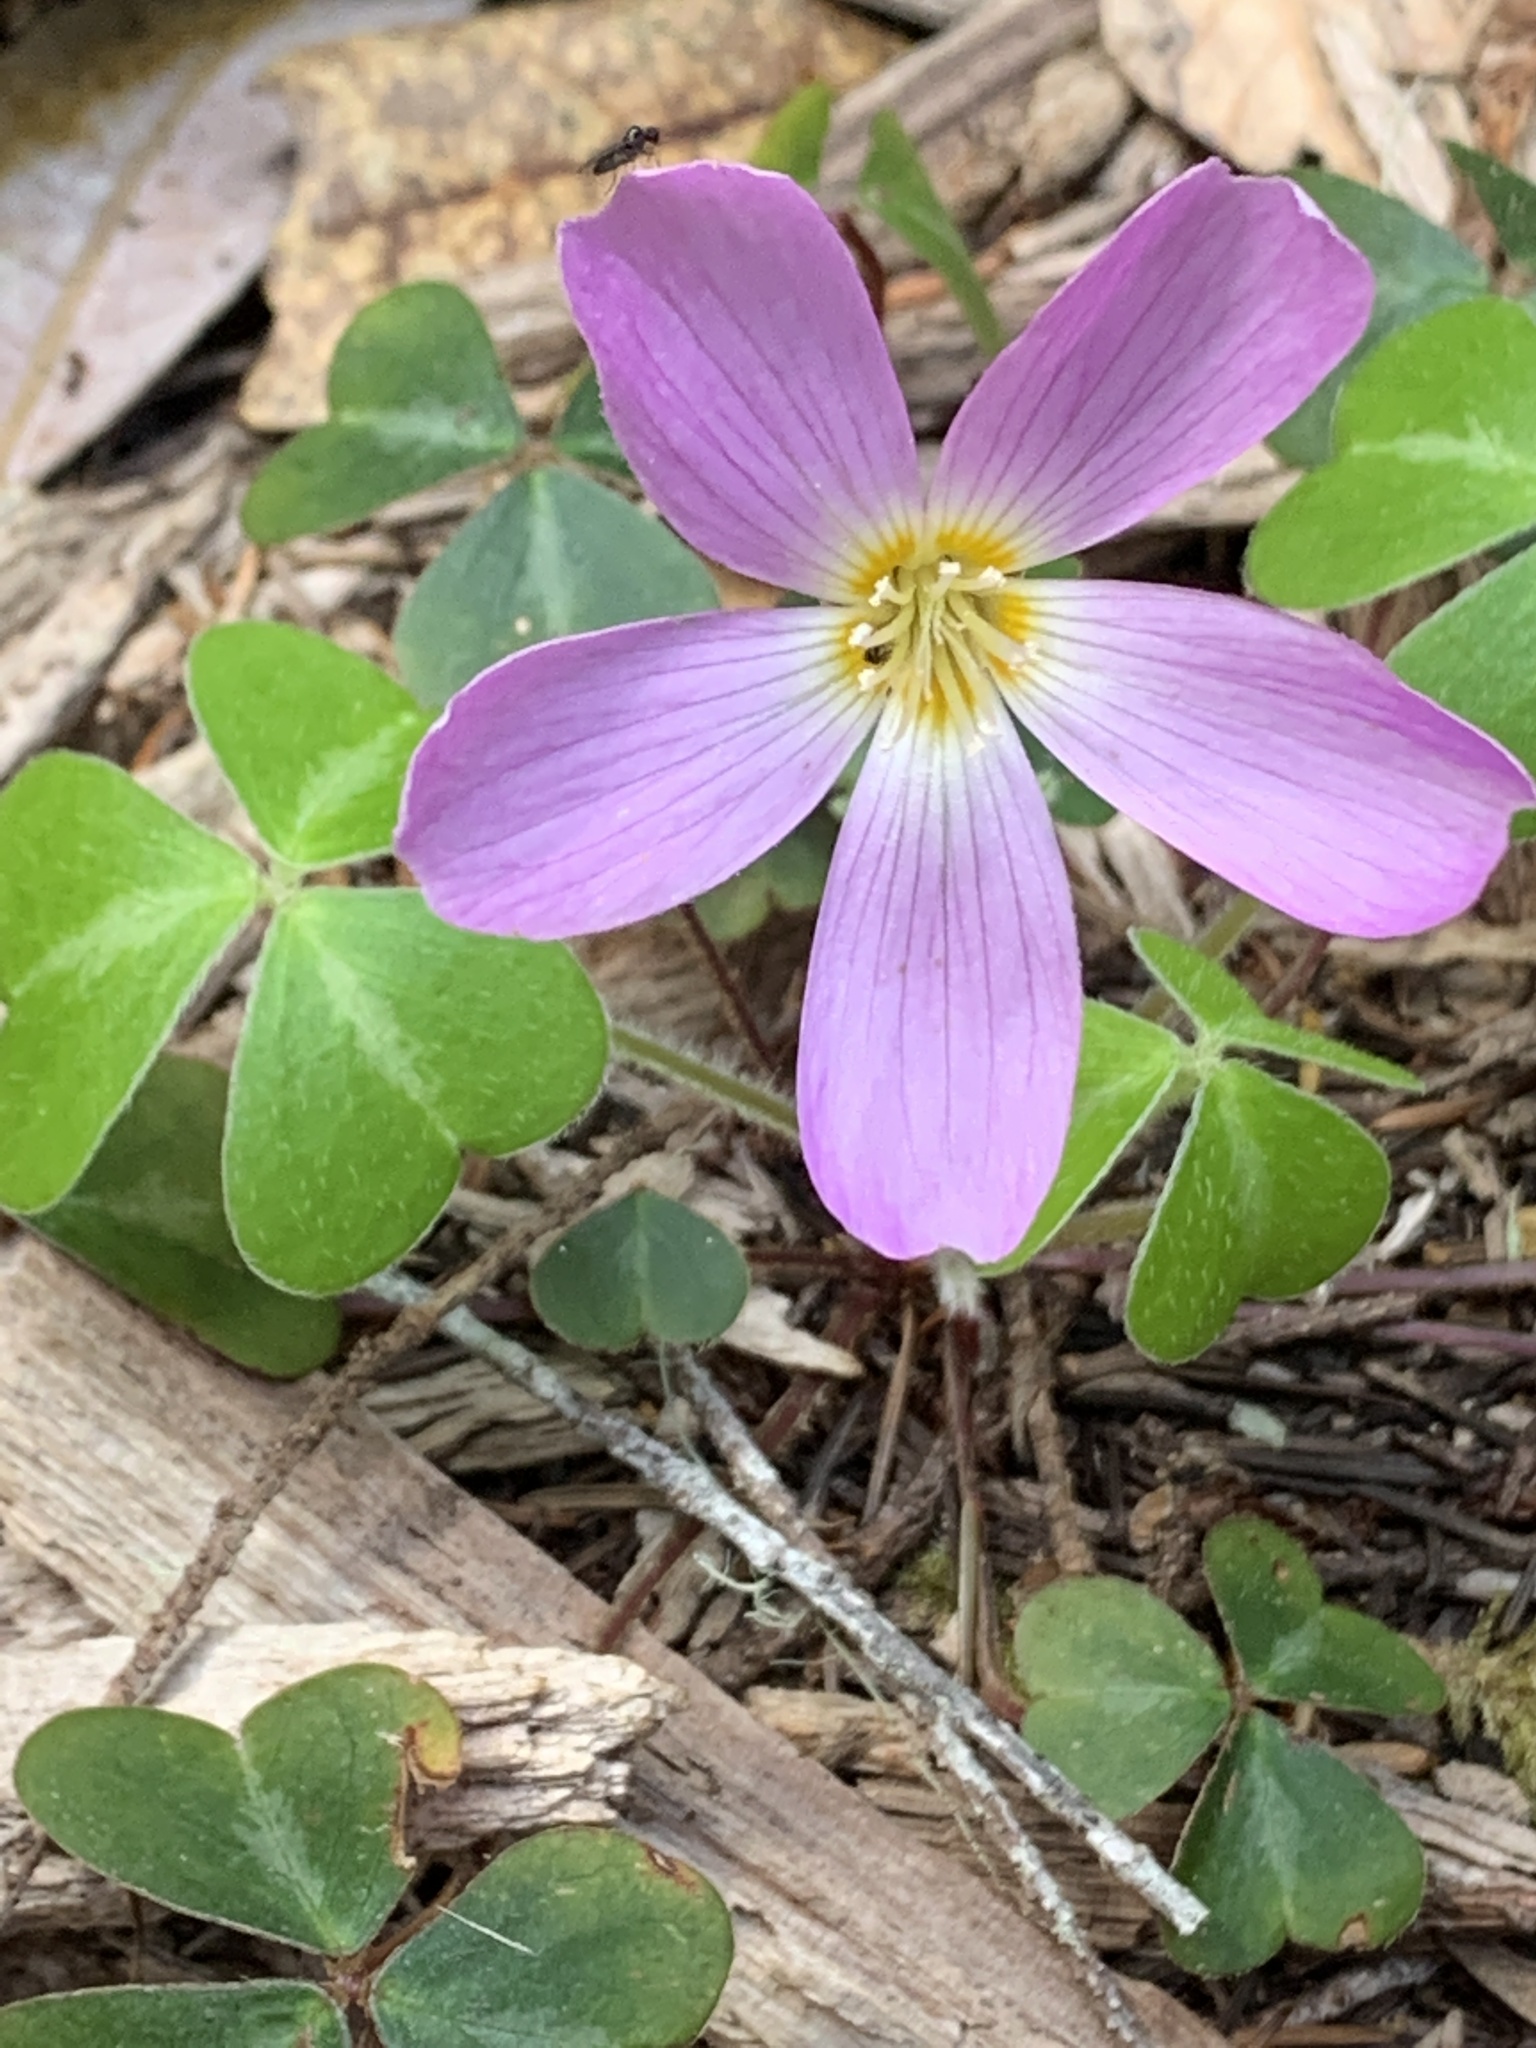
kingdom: Plantae
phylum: Tracheophyta
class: Magnoliopsida
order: Oxalidales
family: Oxalidaceae
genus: Oxalis
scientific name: Oxalis oregana
